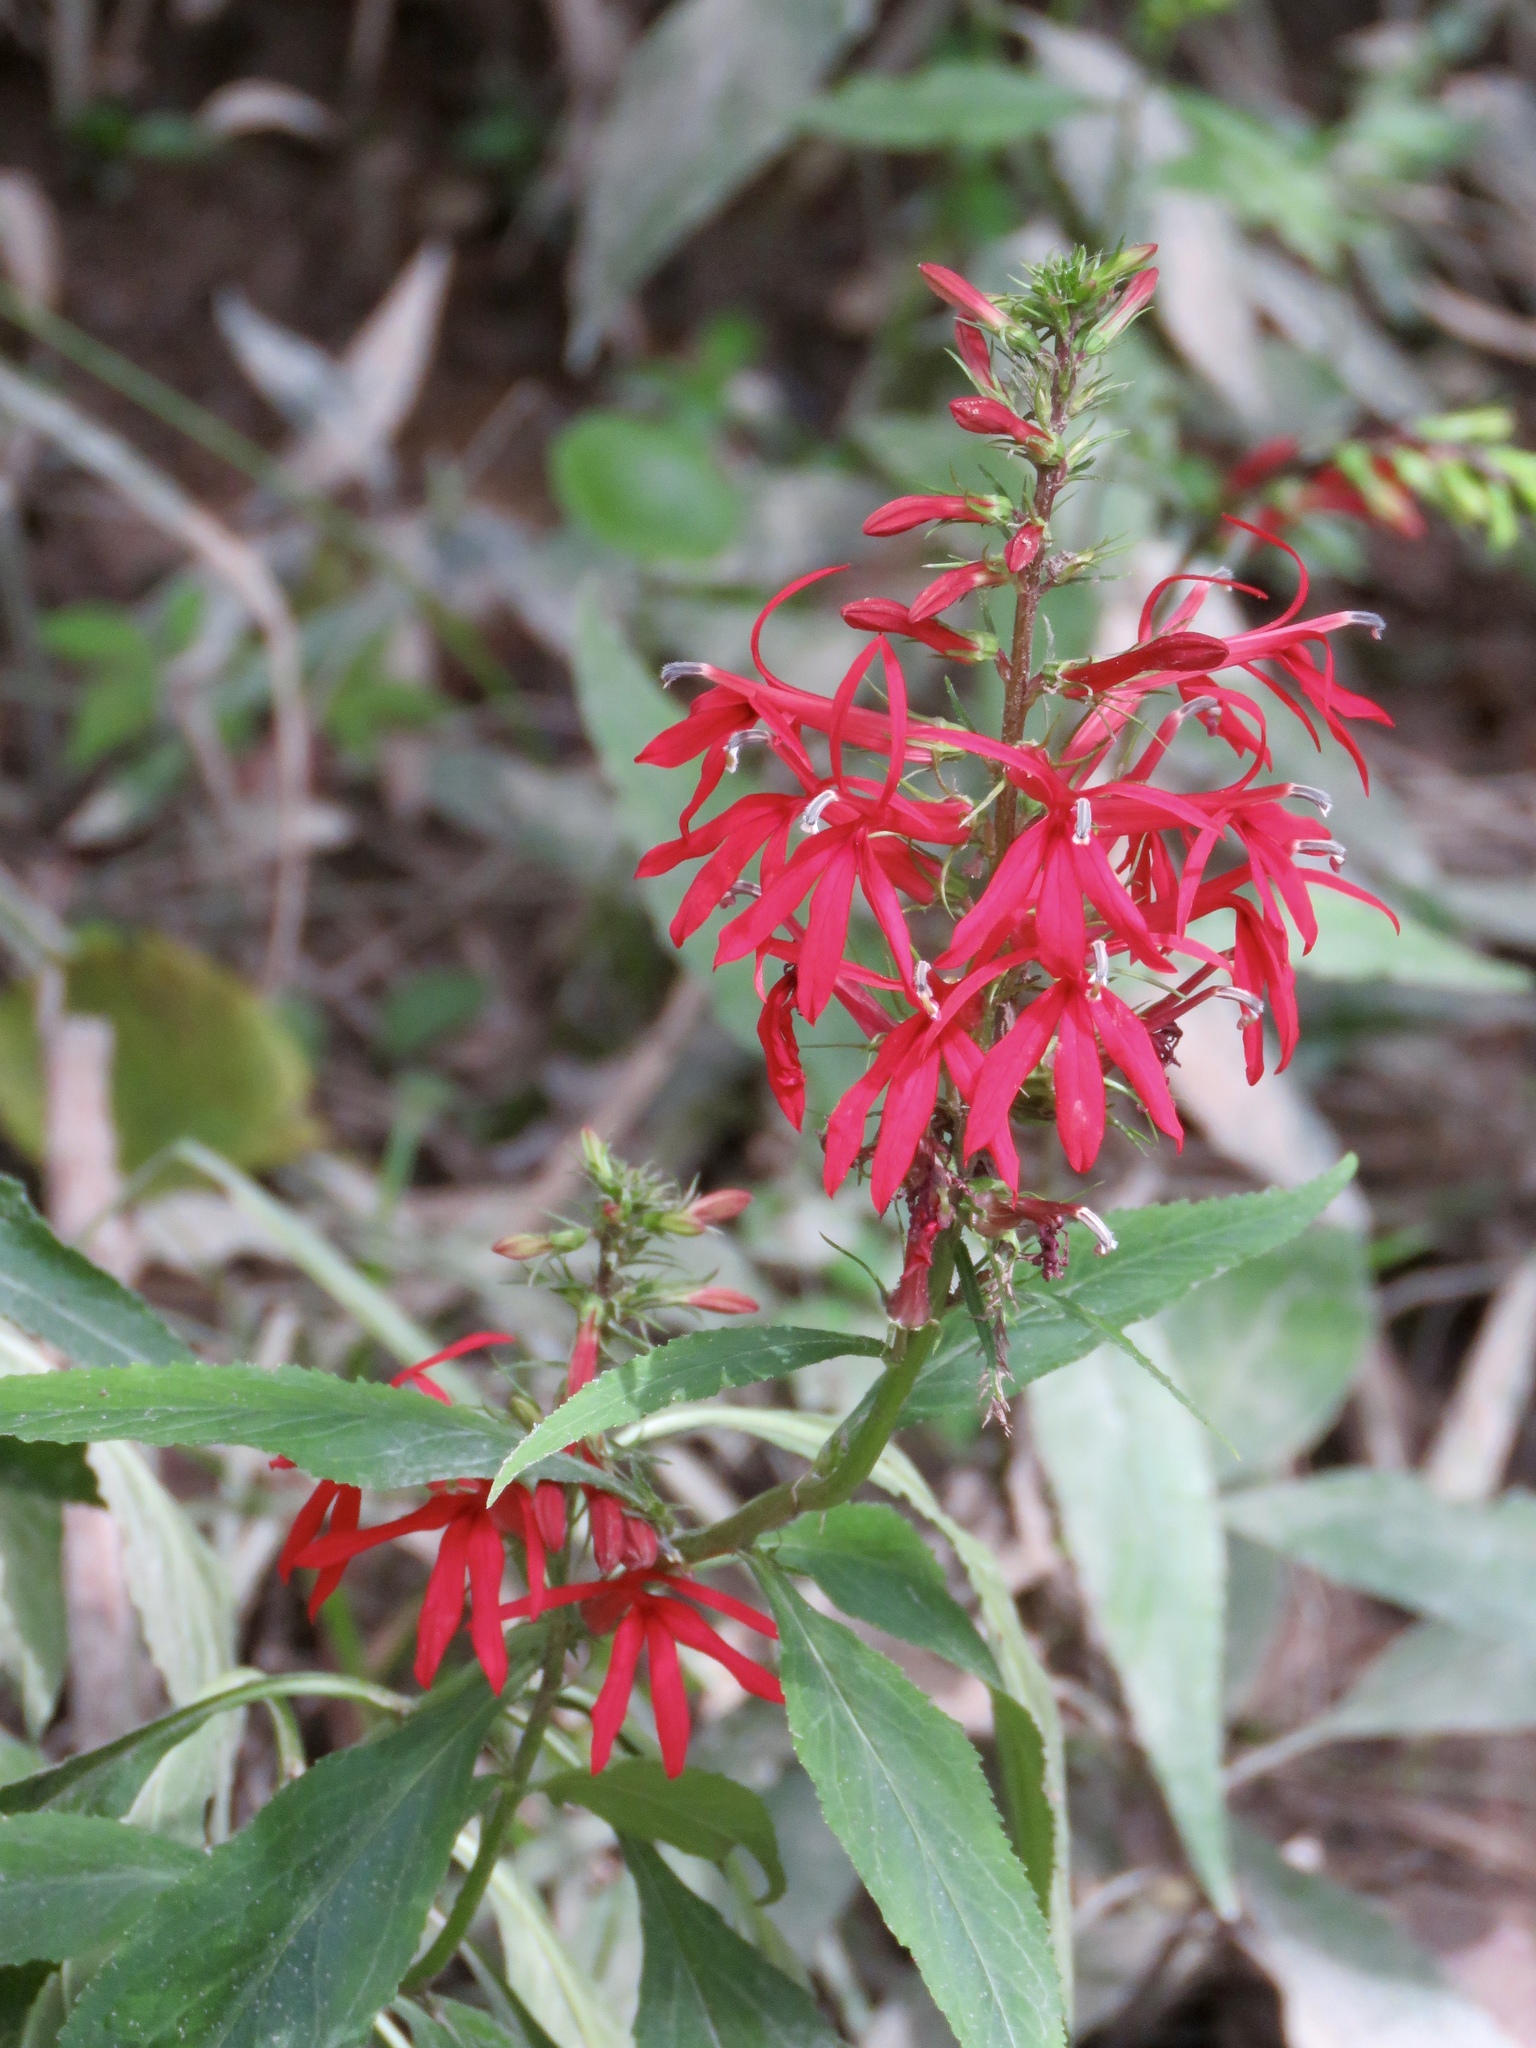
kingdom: Plantae
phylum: Tracheophyta
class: Magnoliopsida
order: Asterales
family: Campanulaceae
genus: Lobelia
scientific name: Lobelia cardinalis
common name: Cardinal flower
